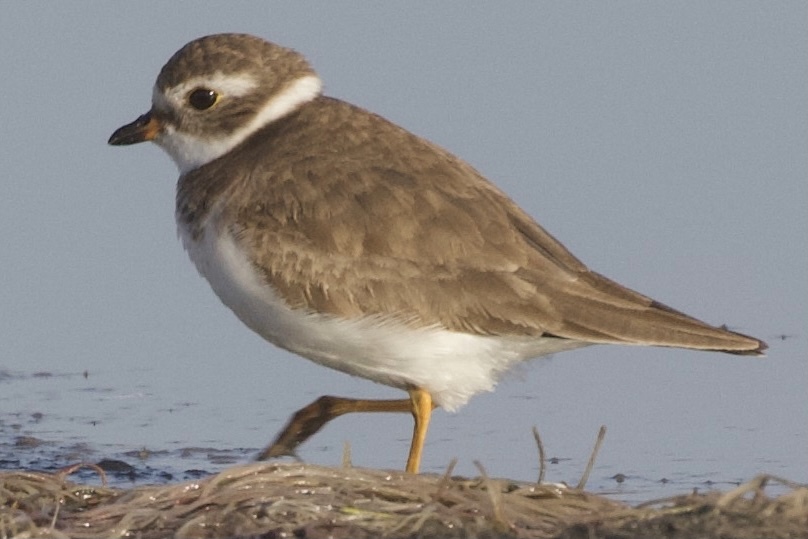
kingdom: Animalia
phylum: Chordata
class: Aves
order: Charadriiformes
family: Charadriidae
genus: Charadrius
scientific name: Charadrius semipalmatus
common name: Semipalmated plover
